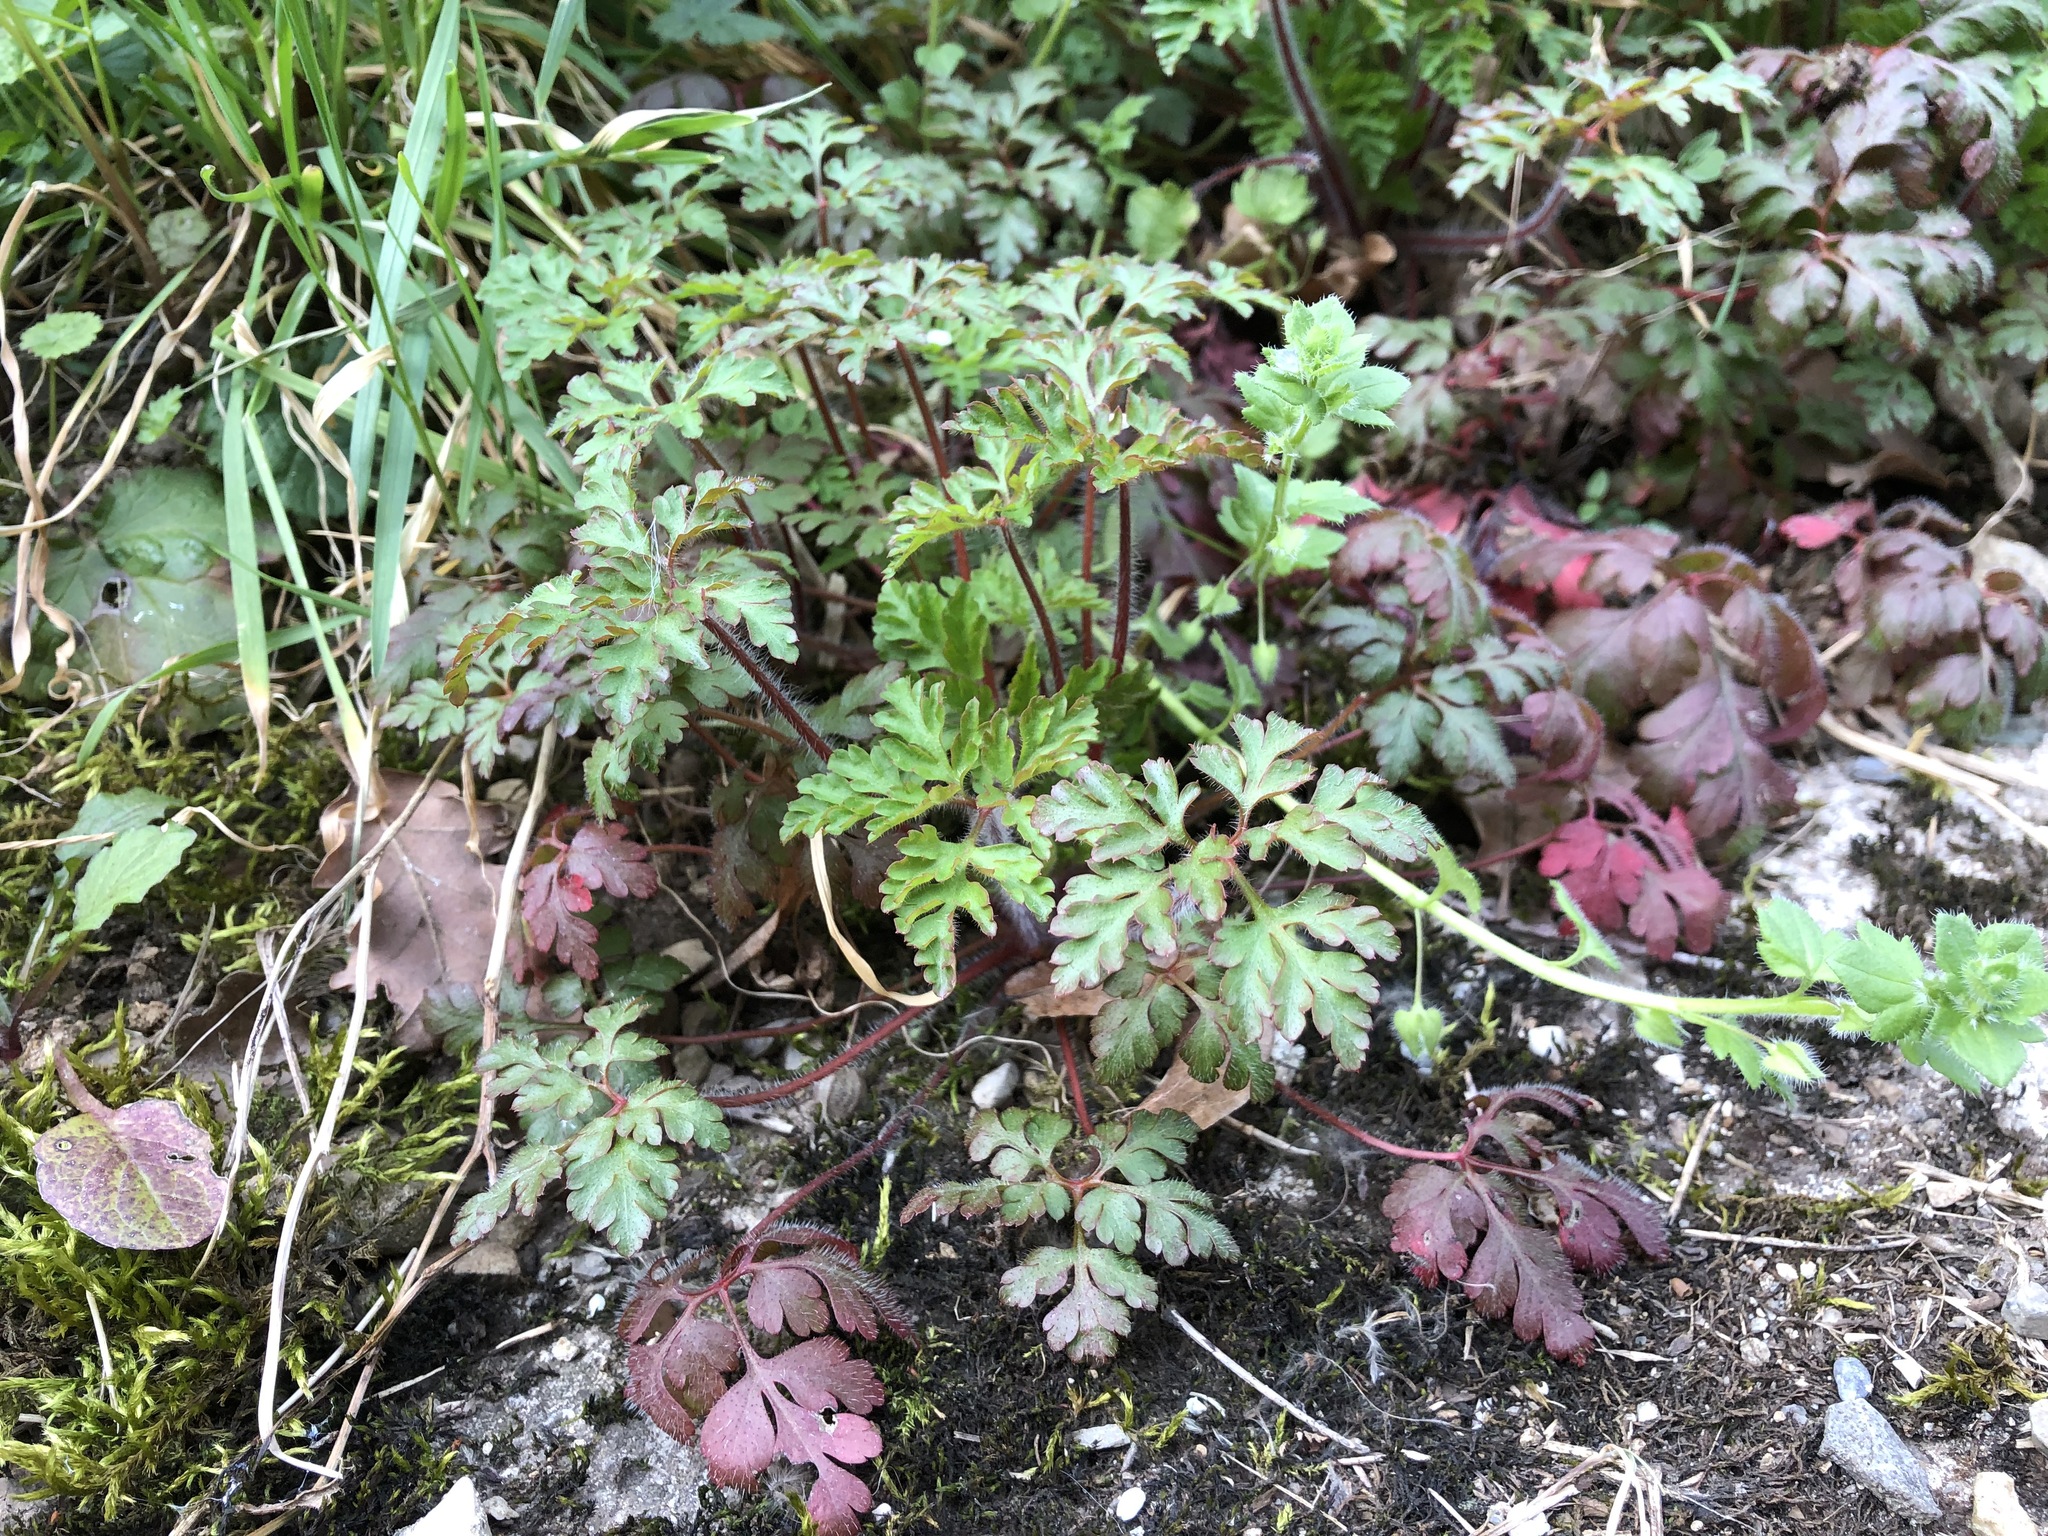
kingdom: Plantae
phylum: Tracheophyta
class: Magnoliopsida
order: Geraniales
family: Geraniaceae
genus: Geranium
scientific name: Geranium robertianum
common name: Herb-robert
